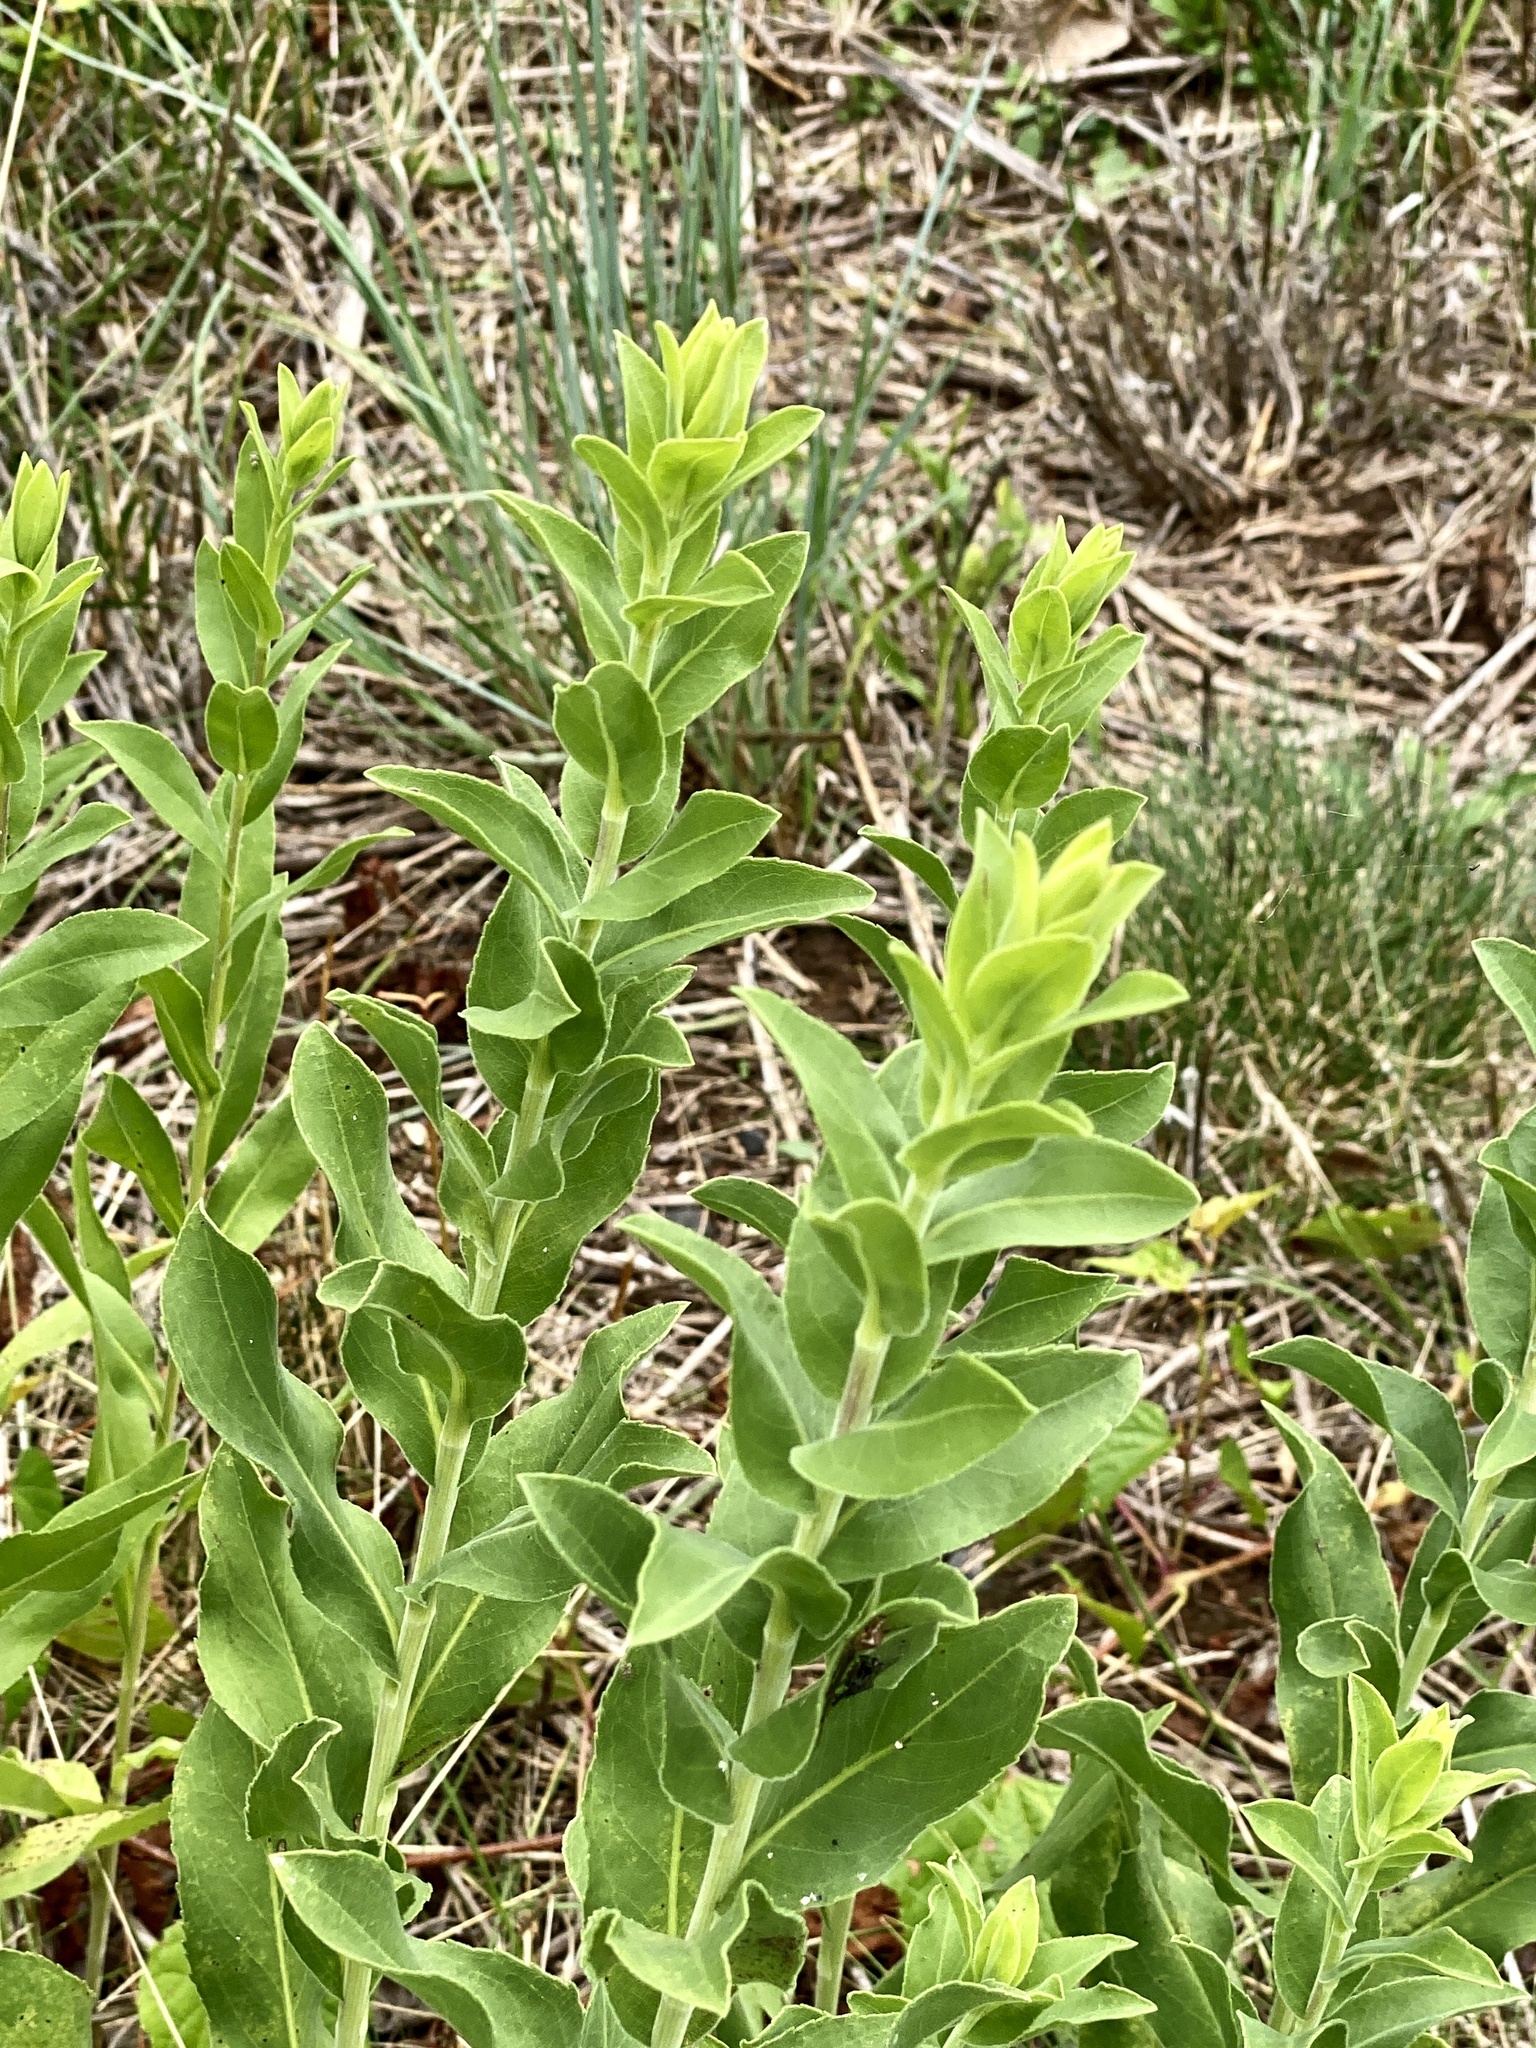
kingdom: Plantae
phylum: Tracheophyta
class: Magnoliopsida
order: Asterales
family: Asteraceae
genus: Solidago
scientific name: Solidago rigida
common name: Rigid goldenrod
